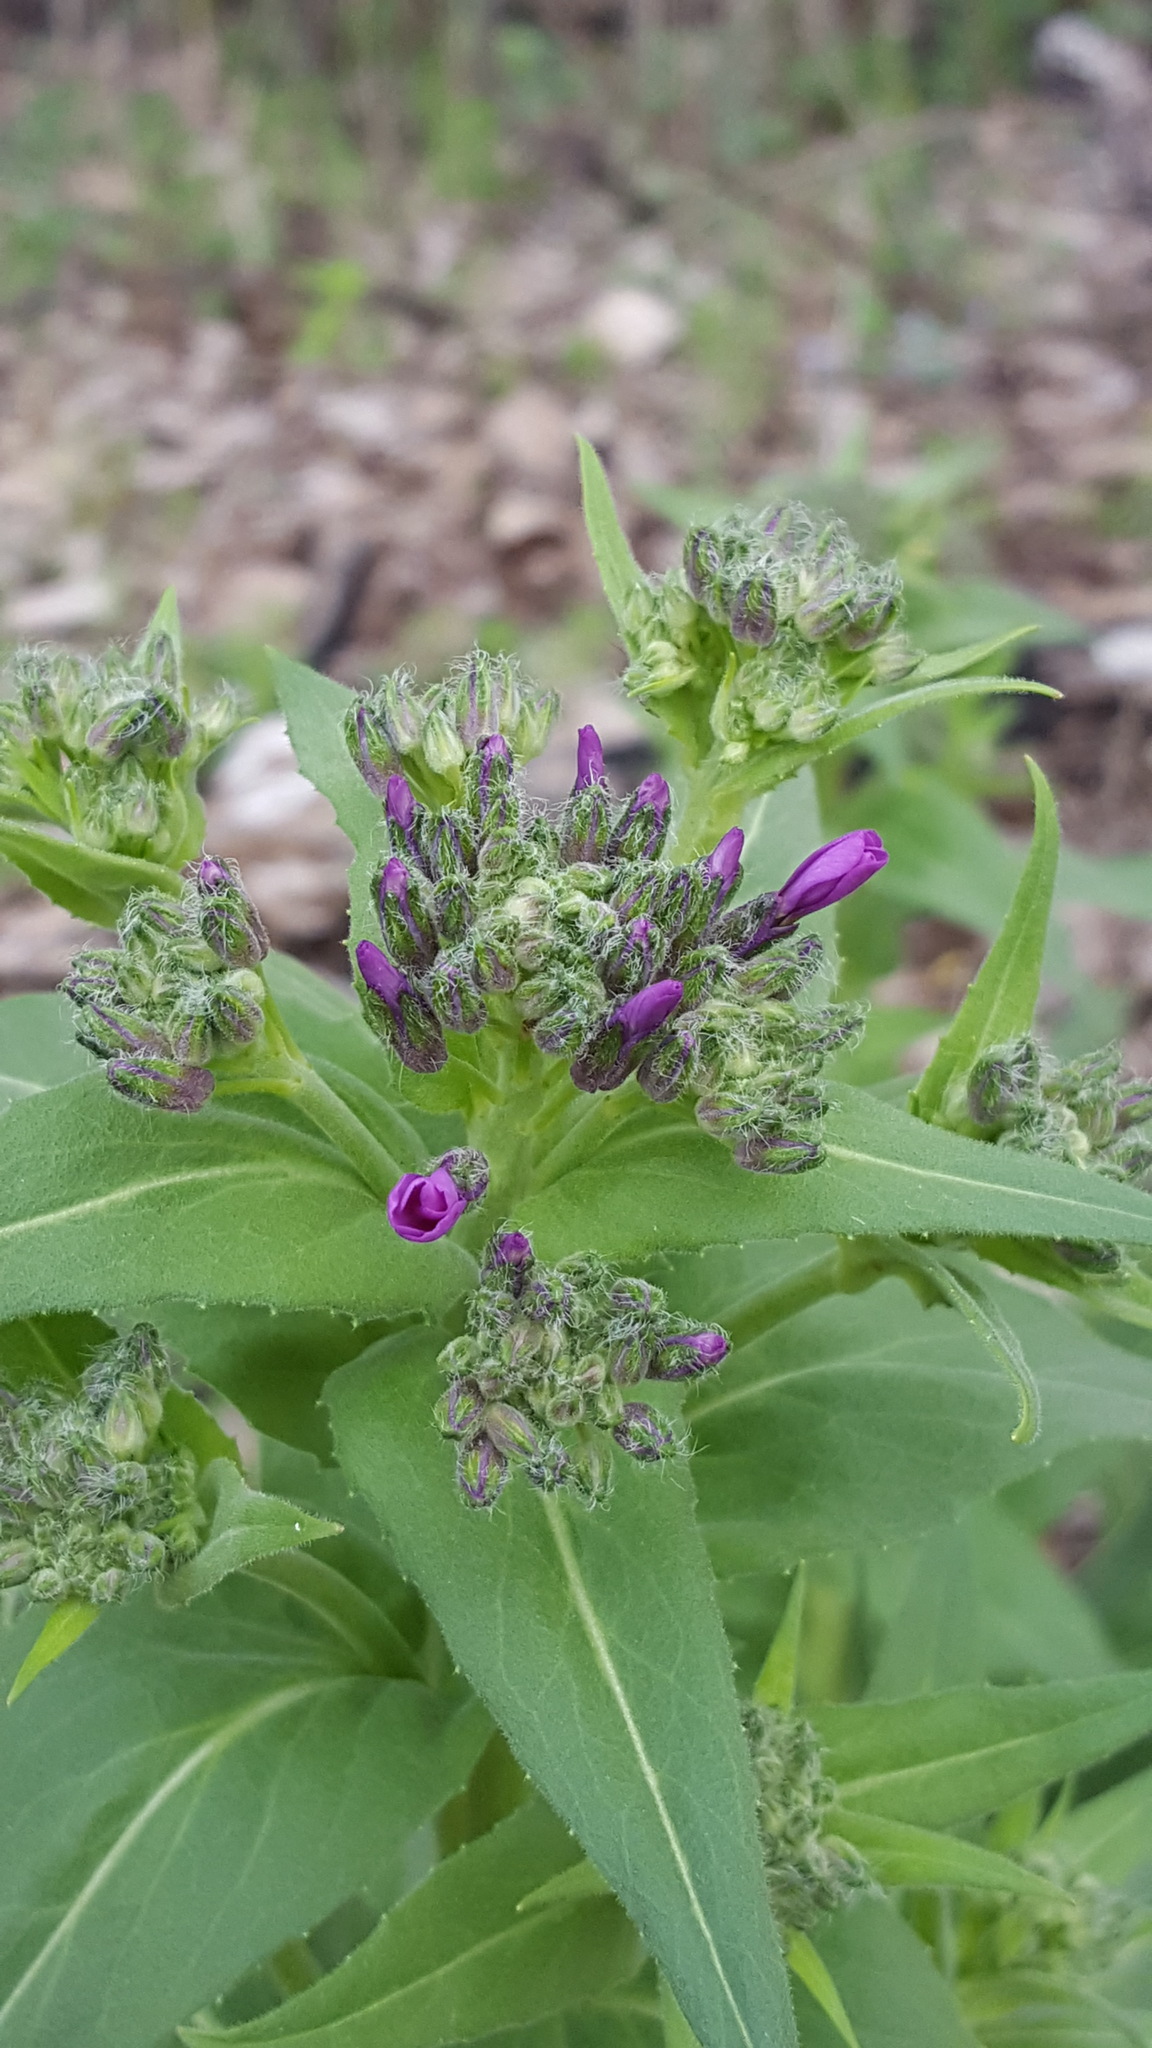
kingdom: Plantae
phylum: Tracheophyta
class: Magnoliopsida
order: Brassicales
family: Brassicaceae
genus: Hesperis
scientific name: Hesperis matronalis
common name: Dame's-violet
